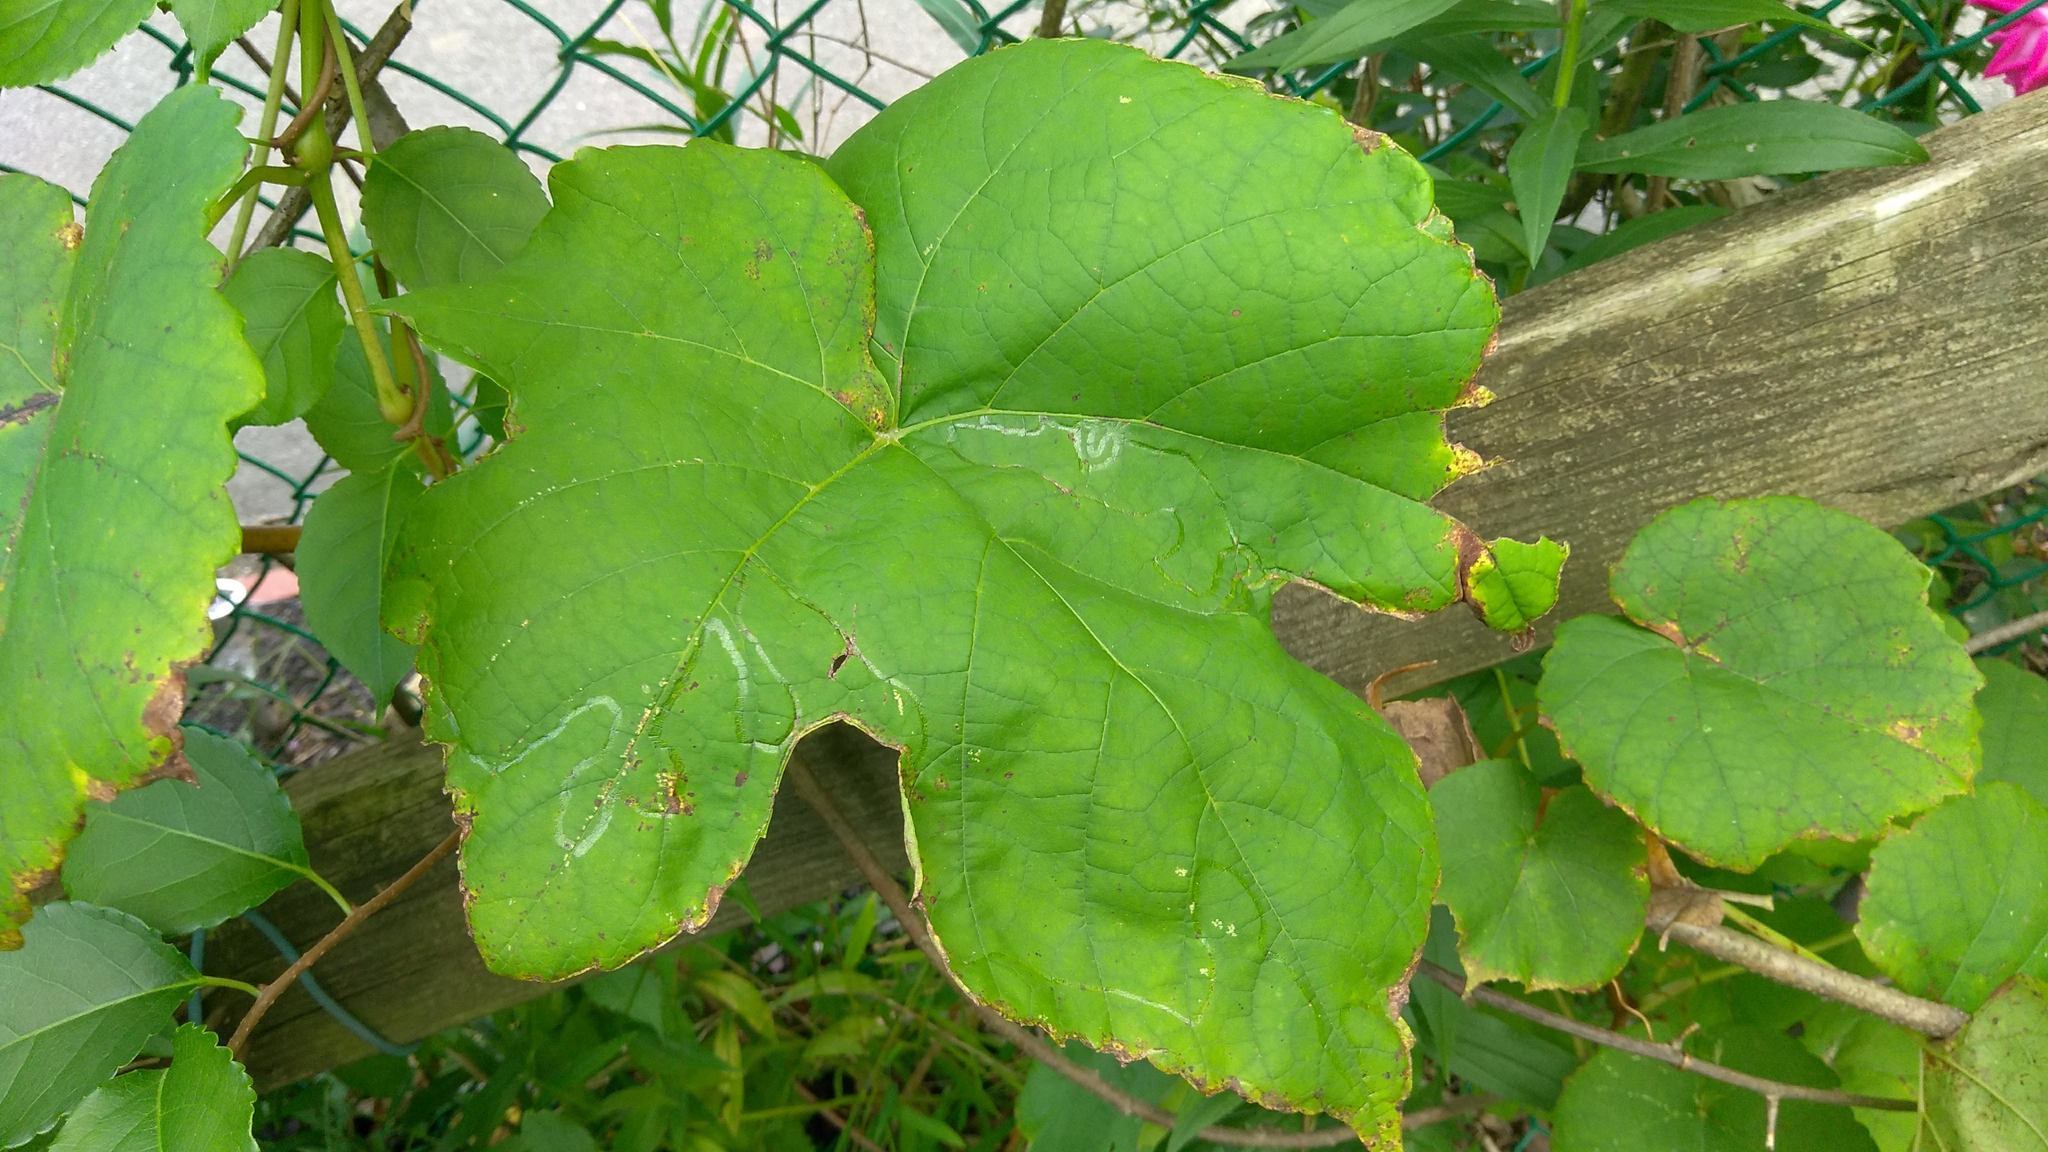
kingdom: Animalia
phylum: Arthropoda
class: Insecta
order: Lepidoptera
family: Gracillariidae
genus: Phyllocnistis
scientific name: Phyllocnistis vitegenella
